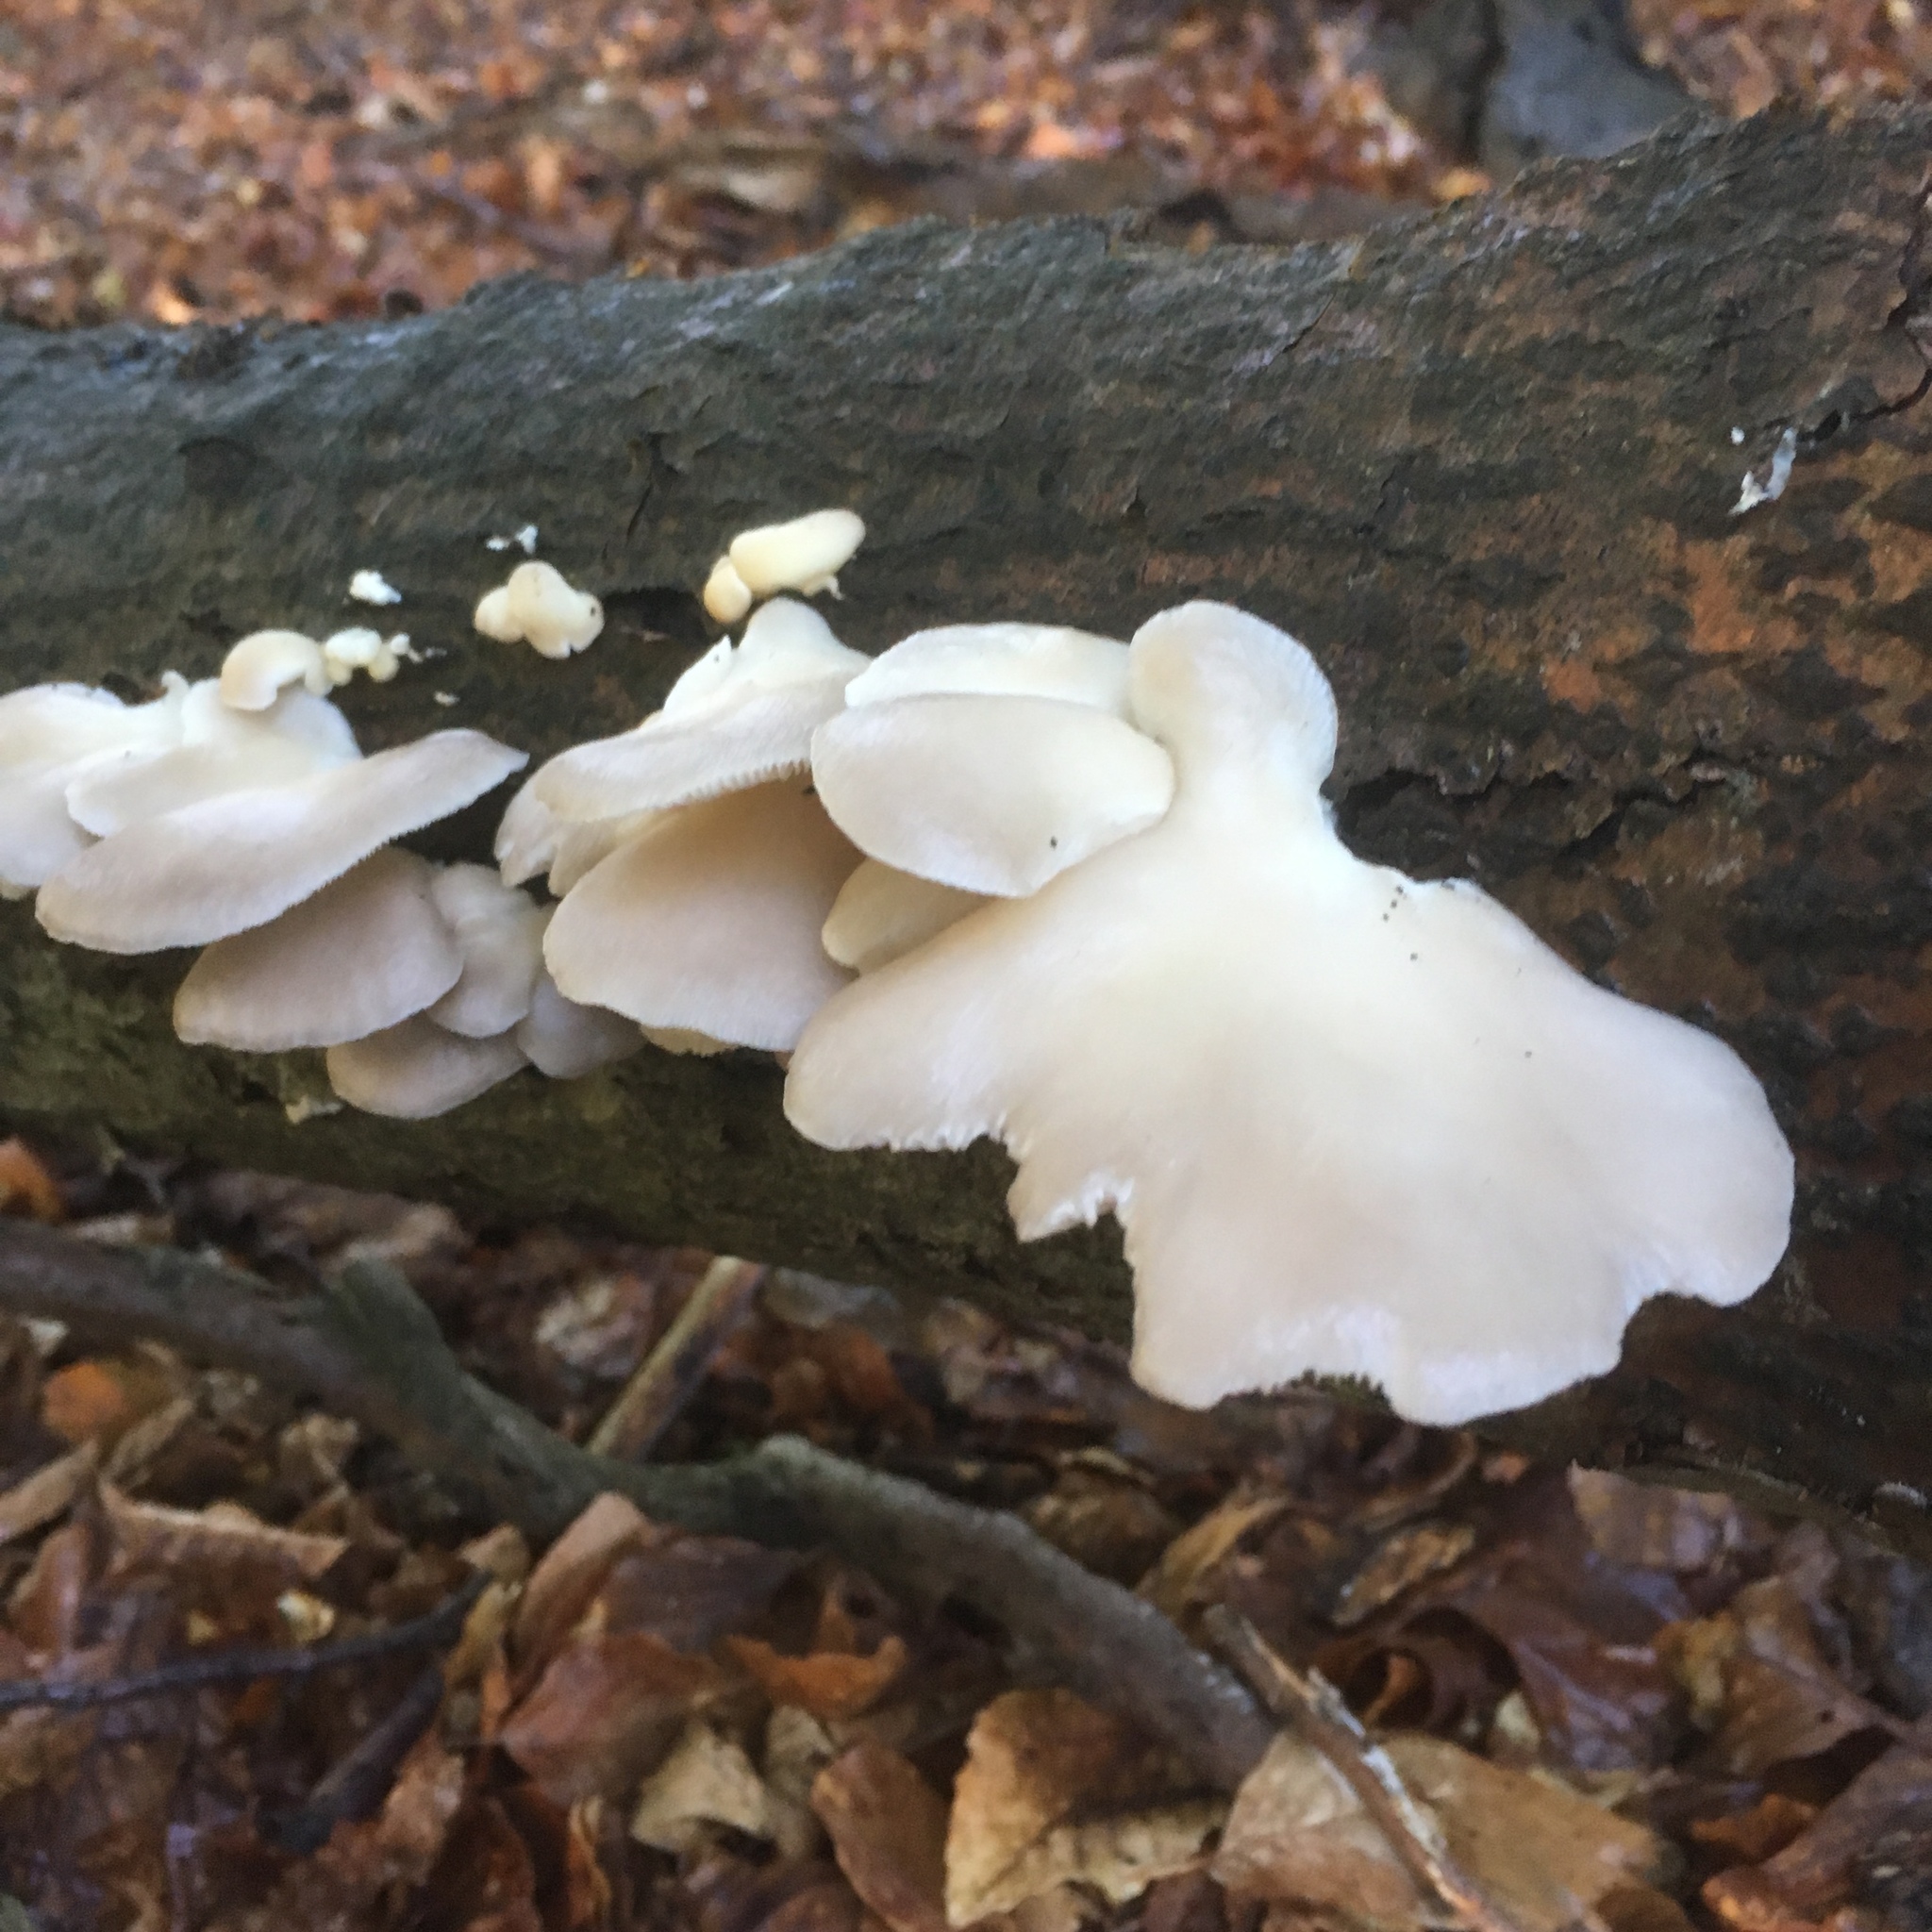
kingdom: Fungi
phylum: Basidiomycota
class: Agaricomycetes
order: Agaricales
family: Pleurotaceae
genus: Pleurotus
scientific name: Pleurotus pulmonarius
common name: Pale oyster
